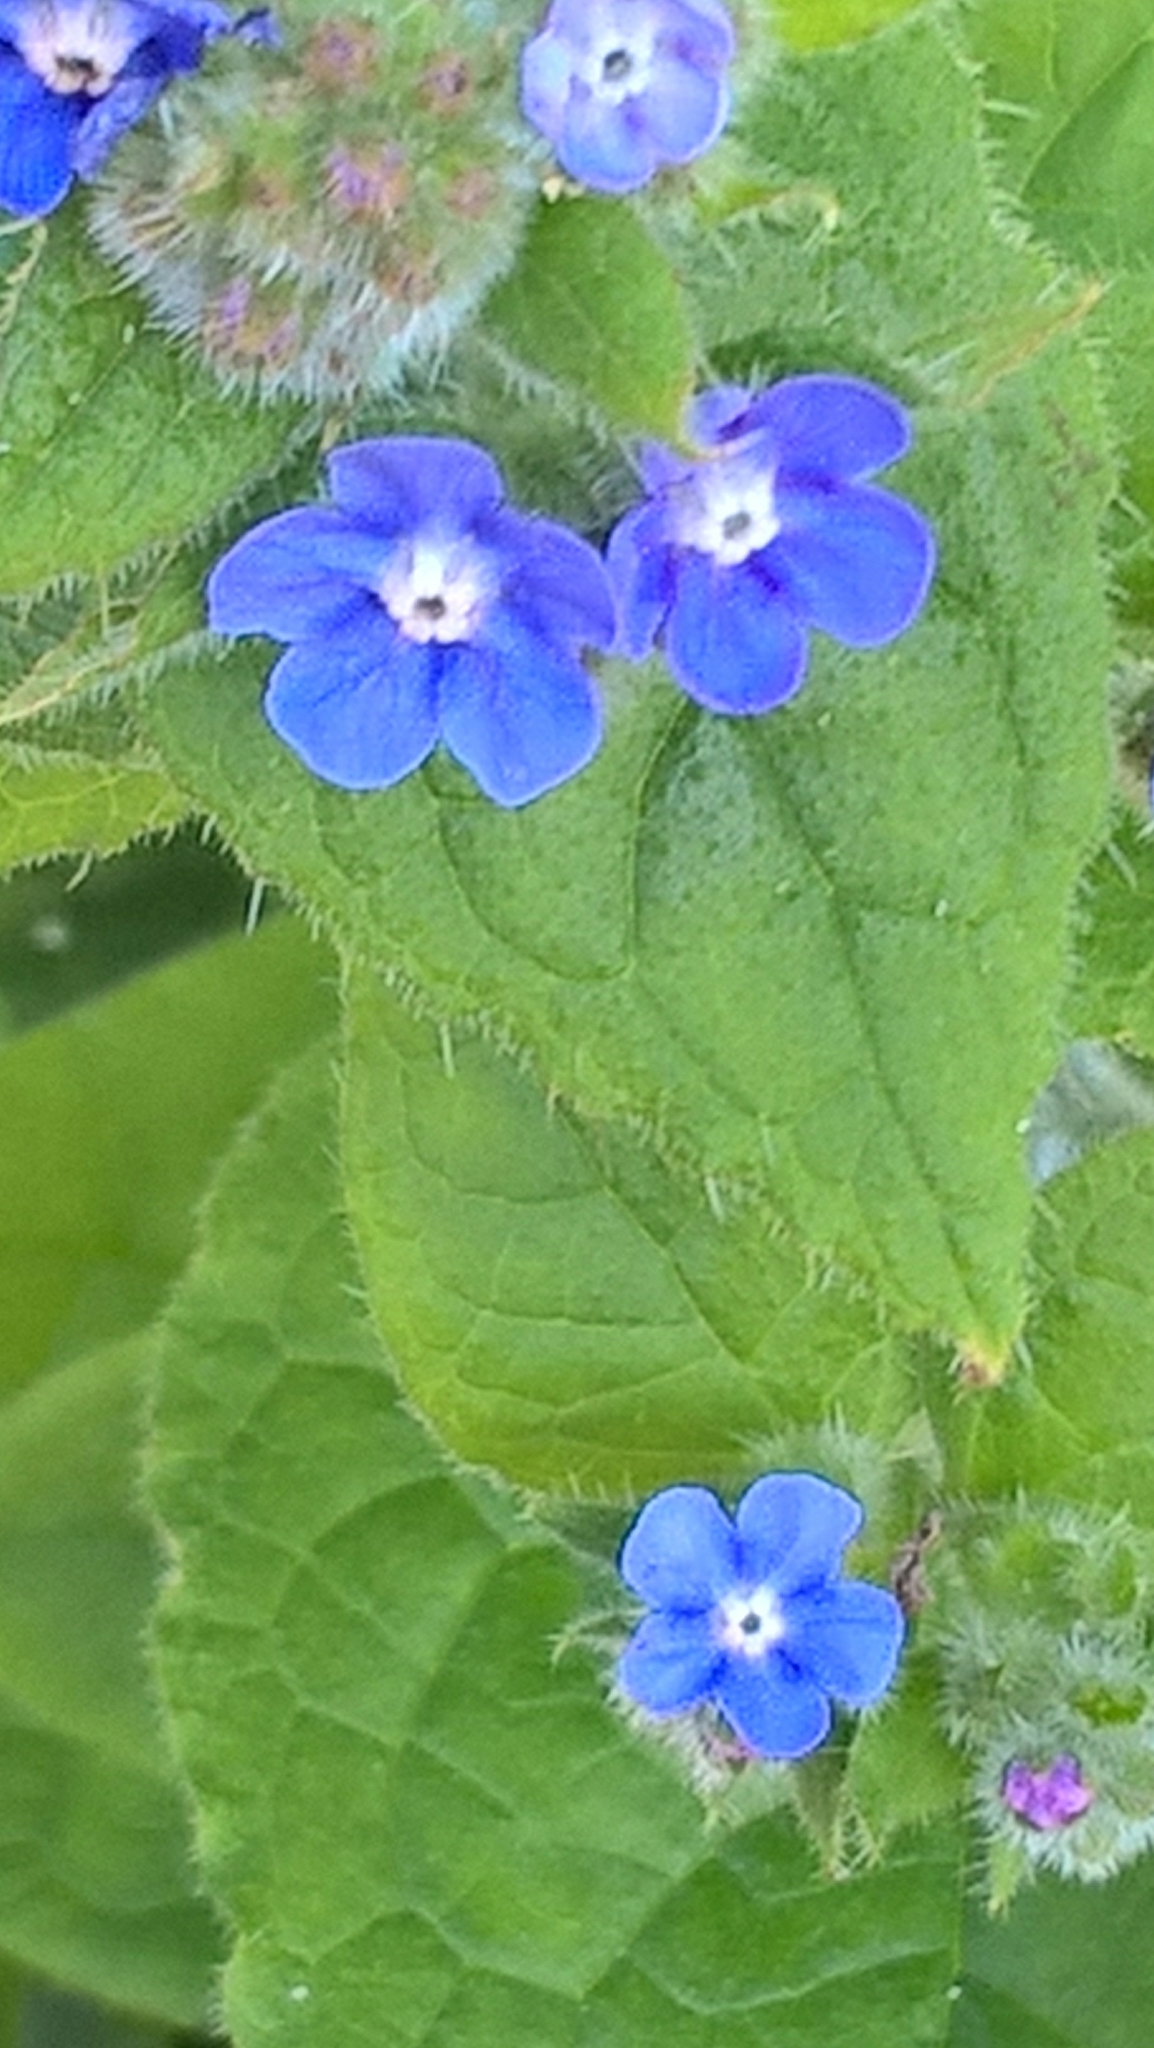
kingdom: Plantae
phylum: Tracheophyta
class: Magnoliopsida
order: Boraginales
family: Boraginaceae
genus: Pentaglottis
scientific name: Pentaglottis sempervirens
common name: Green alkanet
